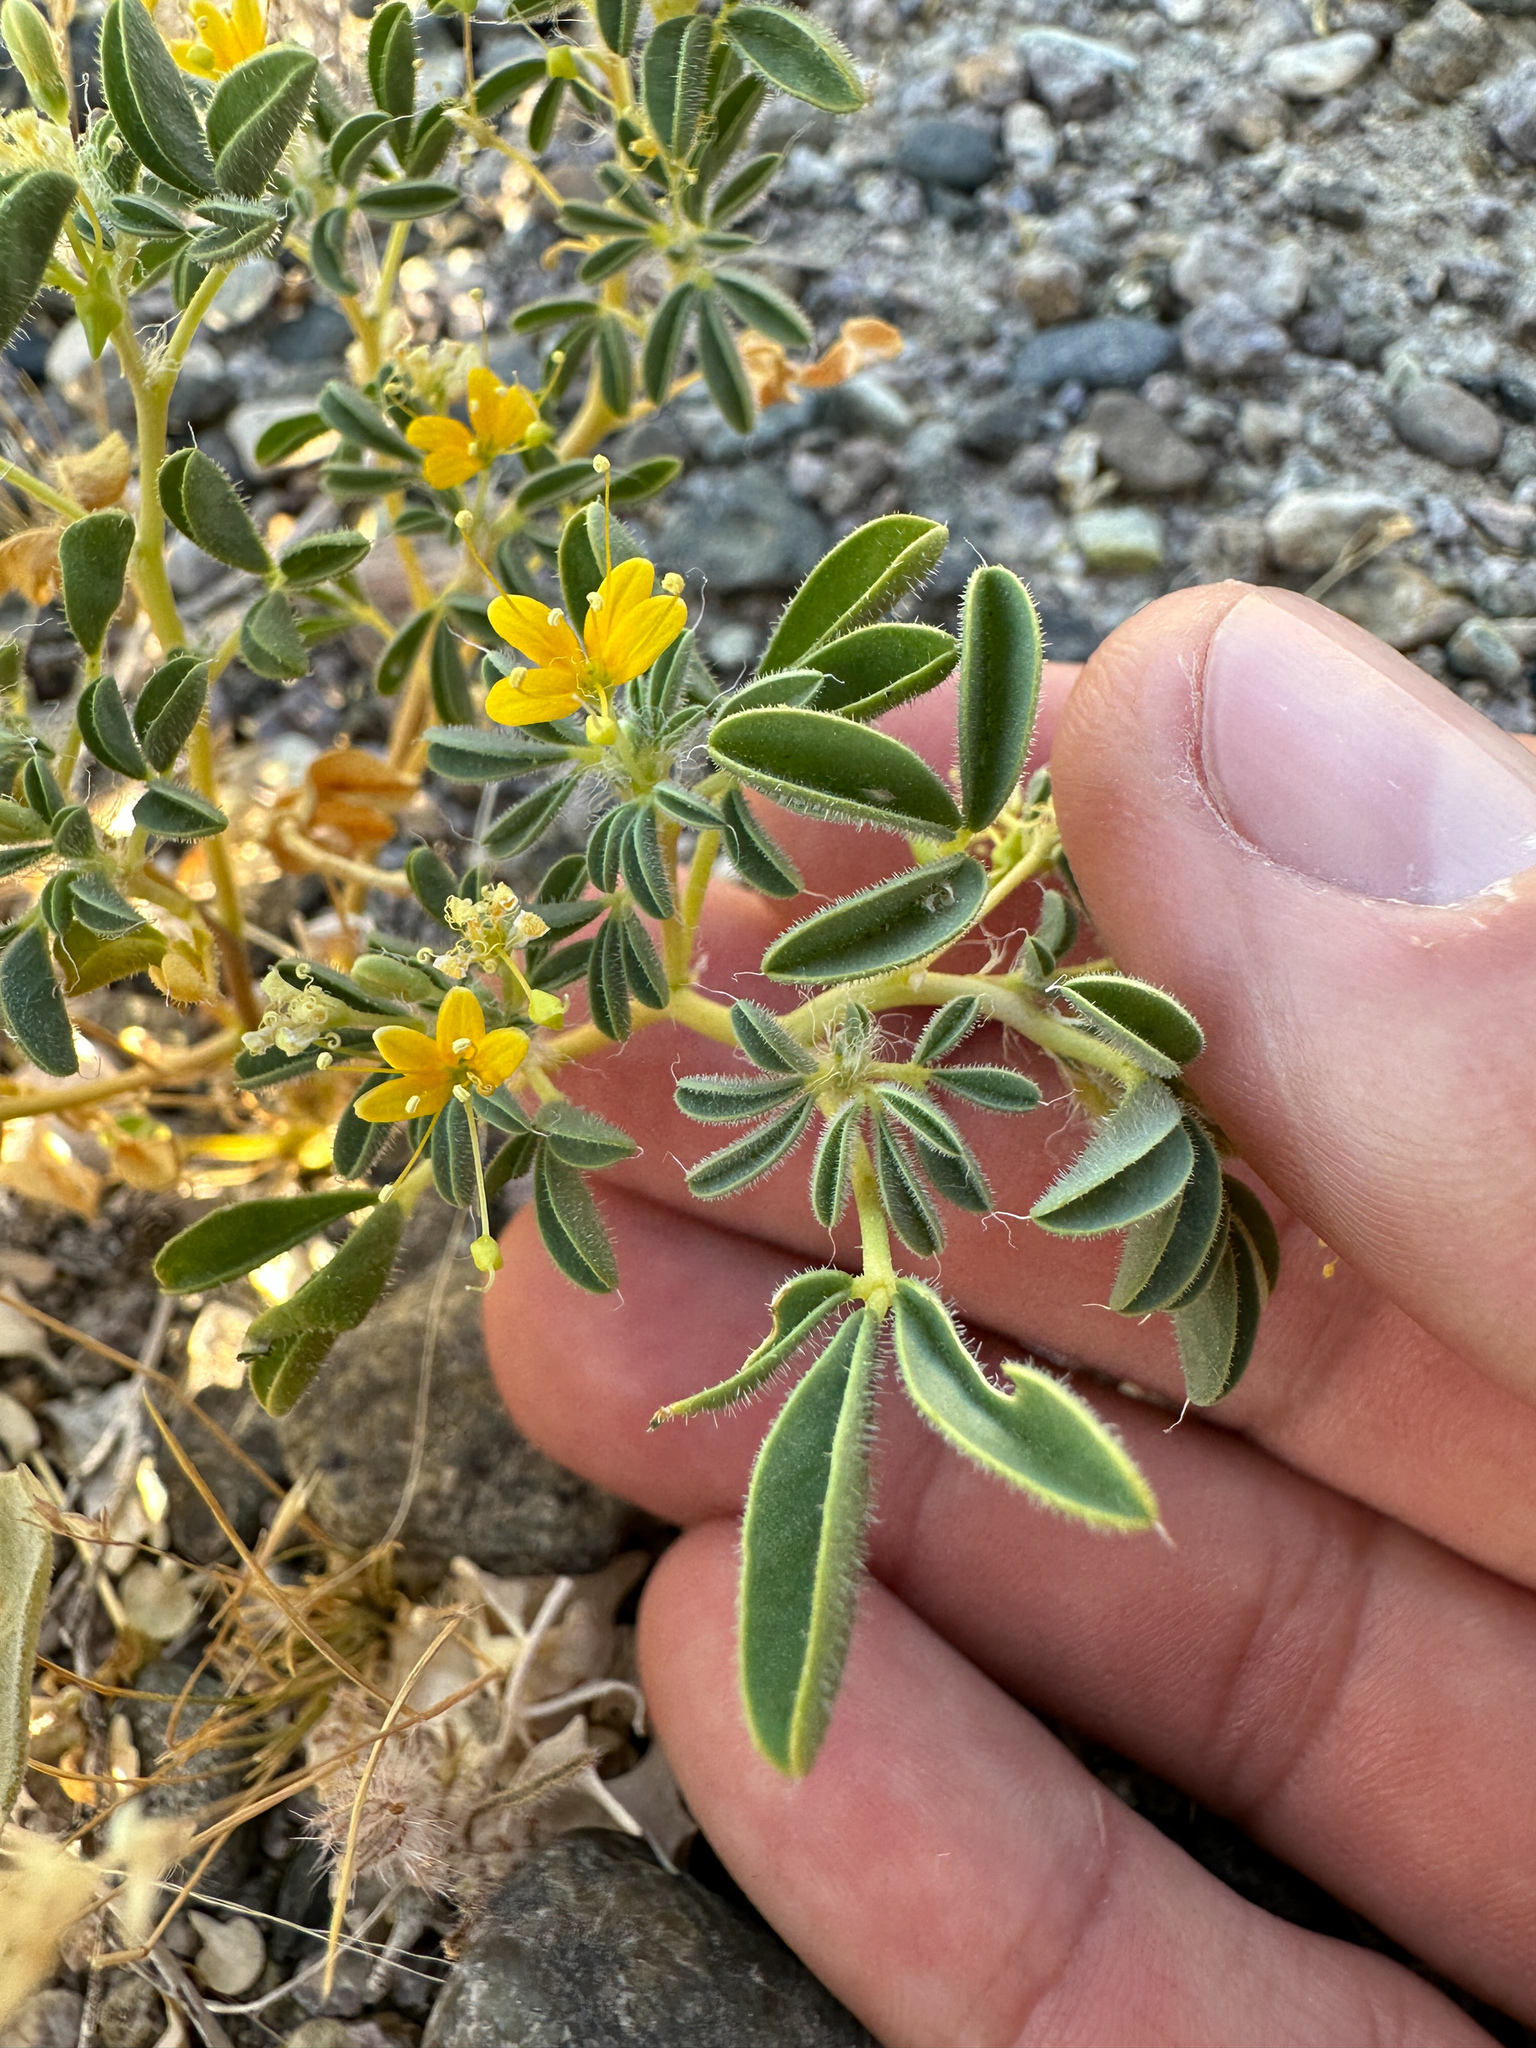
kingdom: Plantae
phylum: Tracheophyta
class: Magnoliopsida
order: Brassicales
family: Cleomaceae
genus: Cleomella
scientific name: Cleomella obtusifolia
